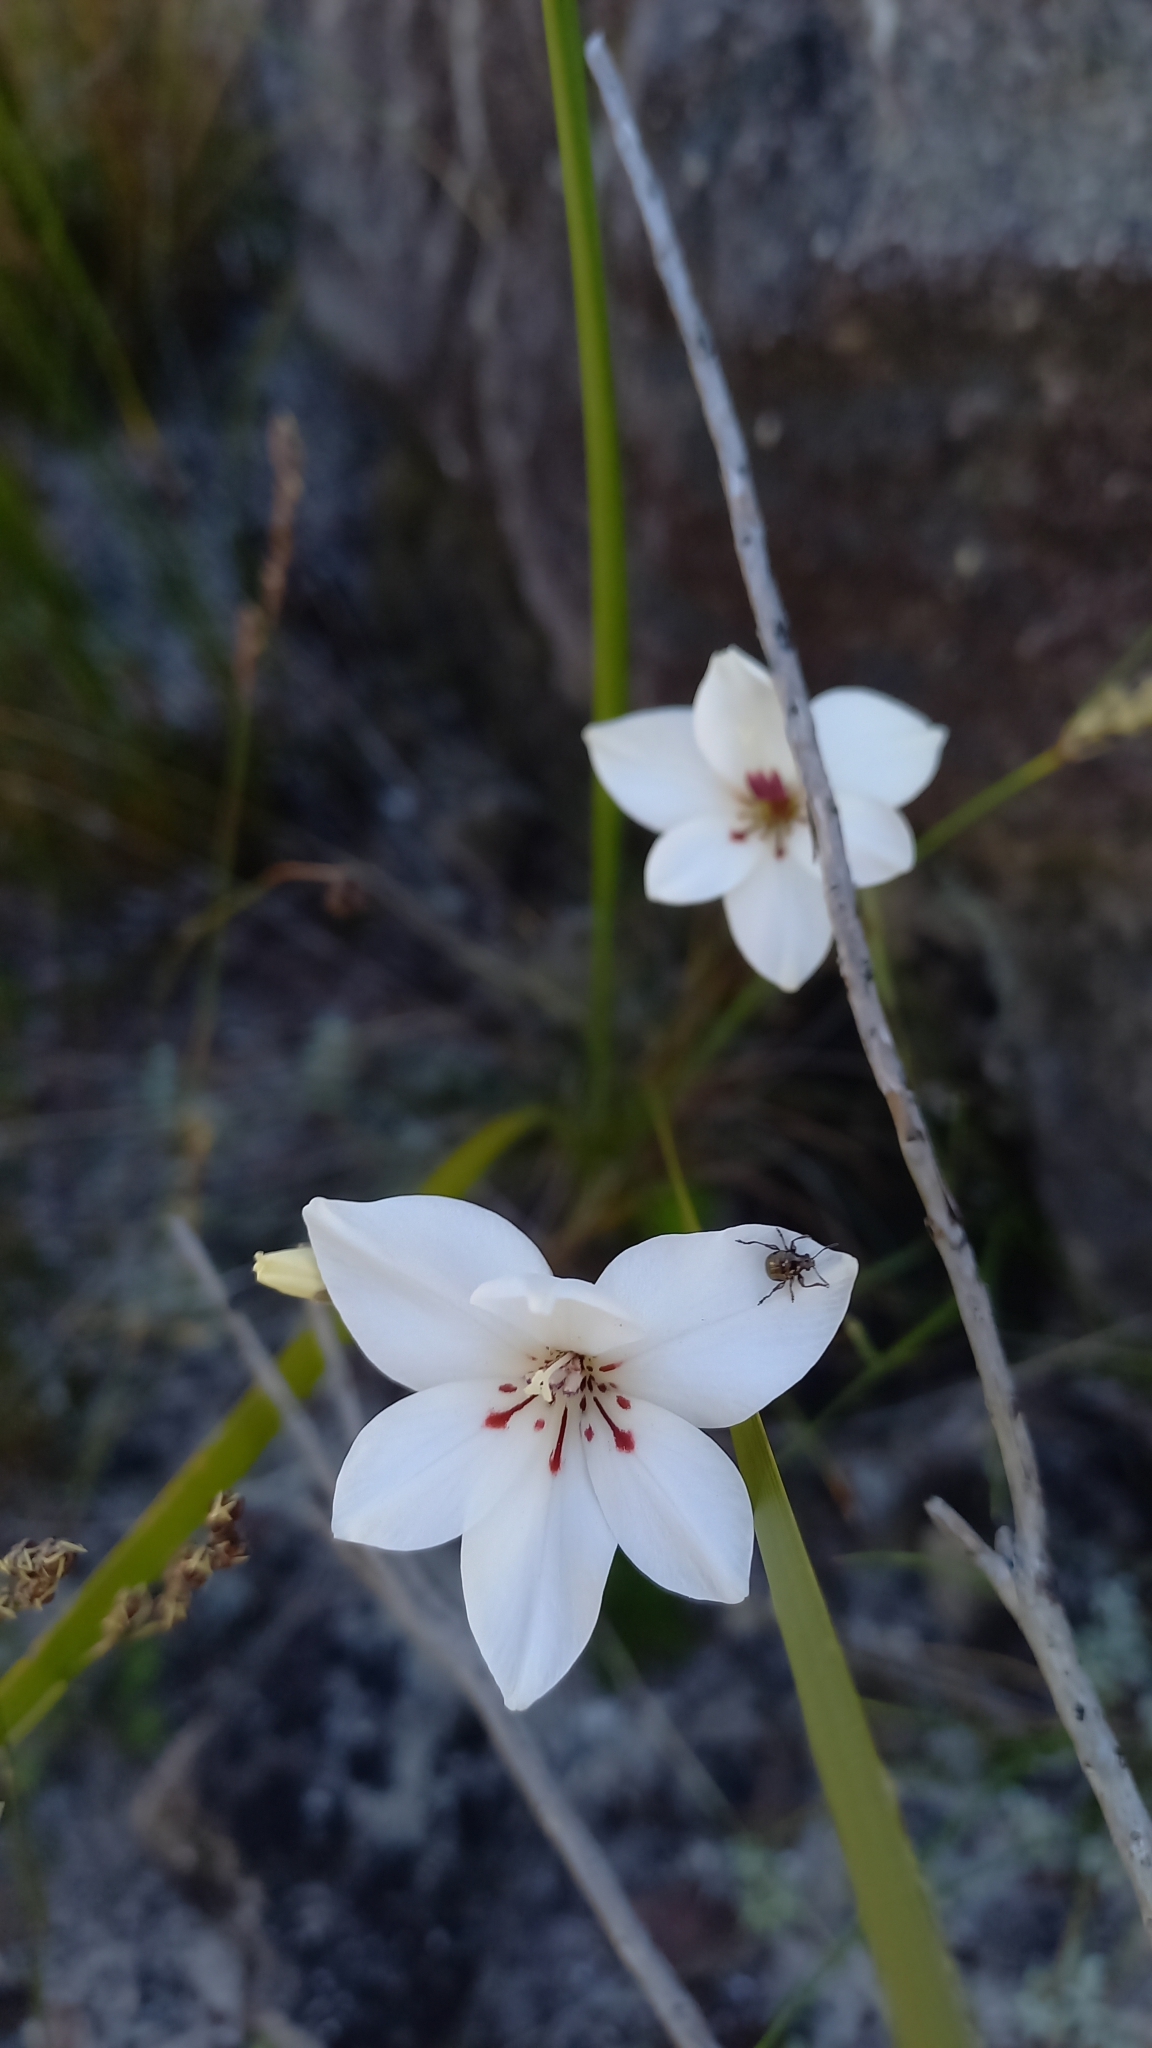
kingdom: Plantae
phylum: Tracheophyta
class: Liliopsida
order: Asparagales
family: Iridaceae
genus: Gladiolus
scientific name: Gladiolus debilis
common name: Painted-lady
